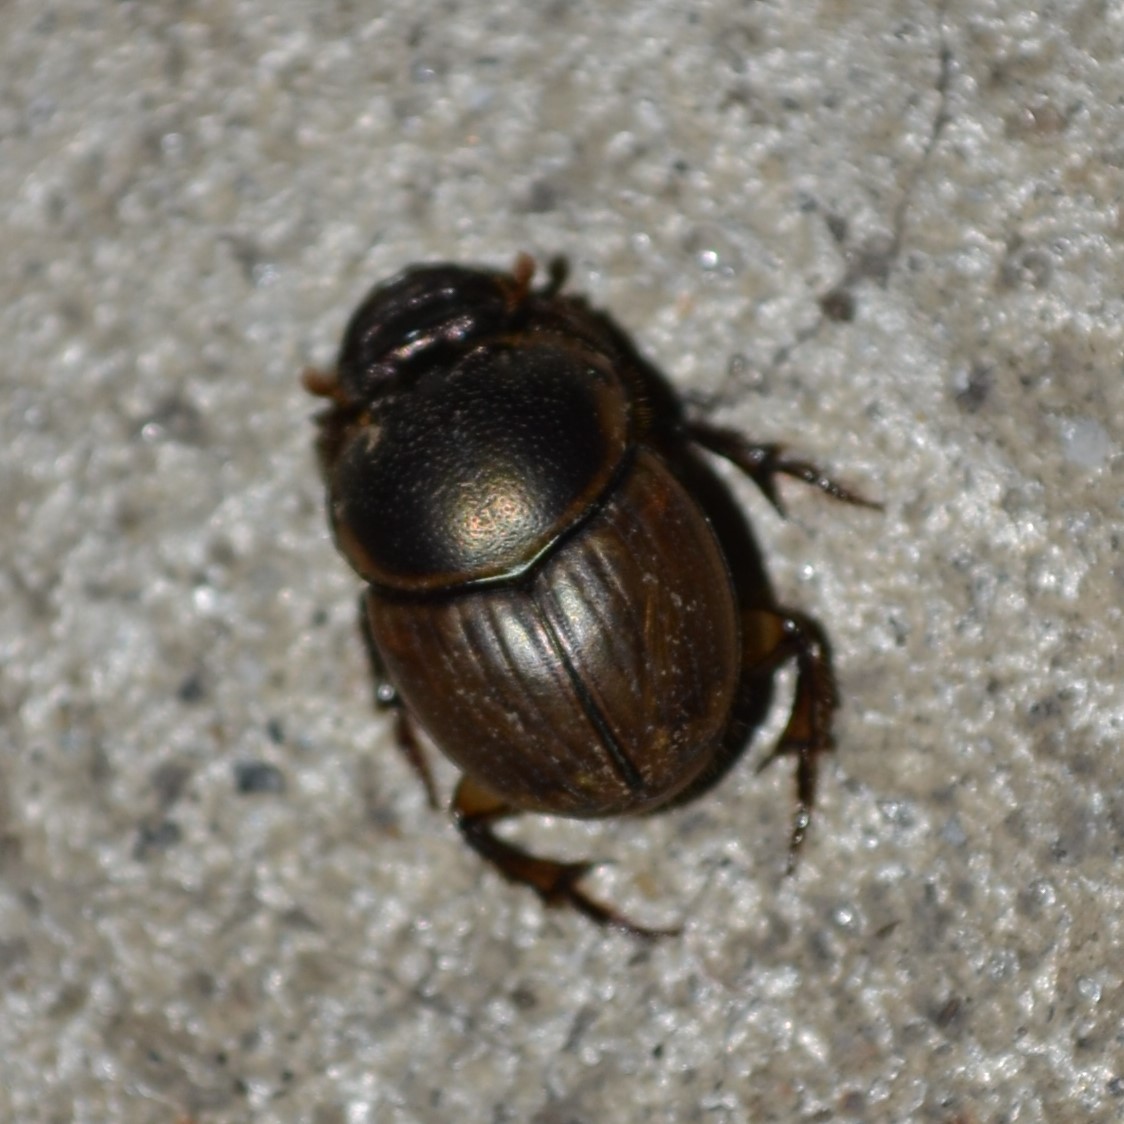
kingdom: Animalia
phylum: Arthropoda
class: Insecta
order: Coleoptera
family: Scarabaeidae
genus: Digitonthophagus
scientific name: Digitonthophagus gazella
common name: Brown dung beetle
